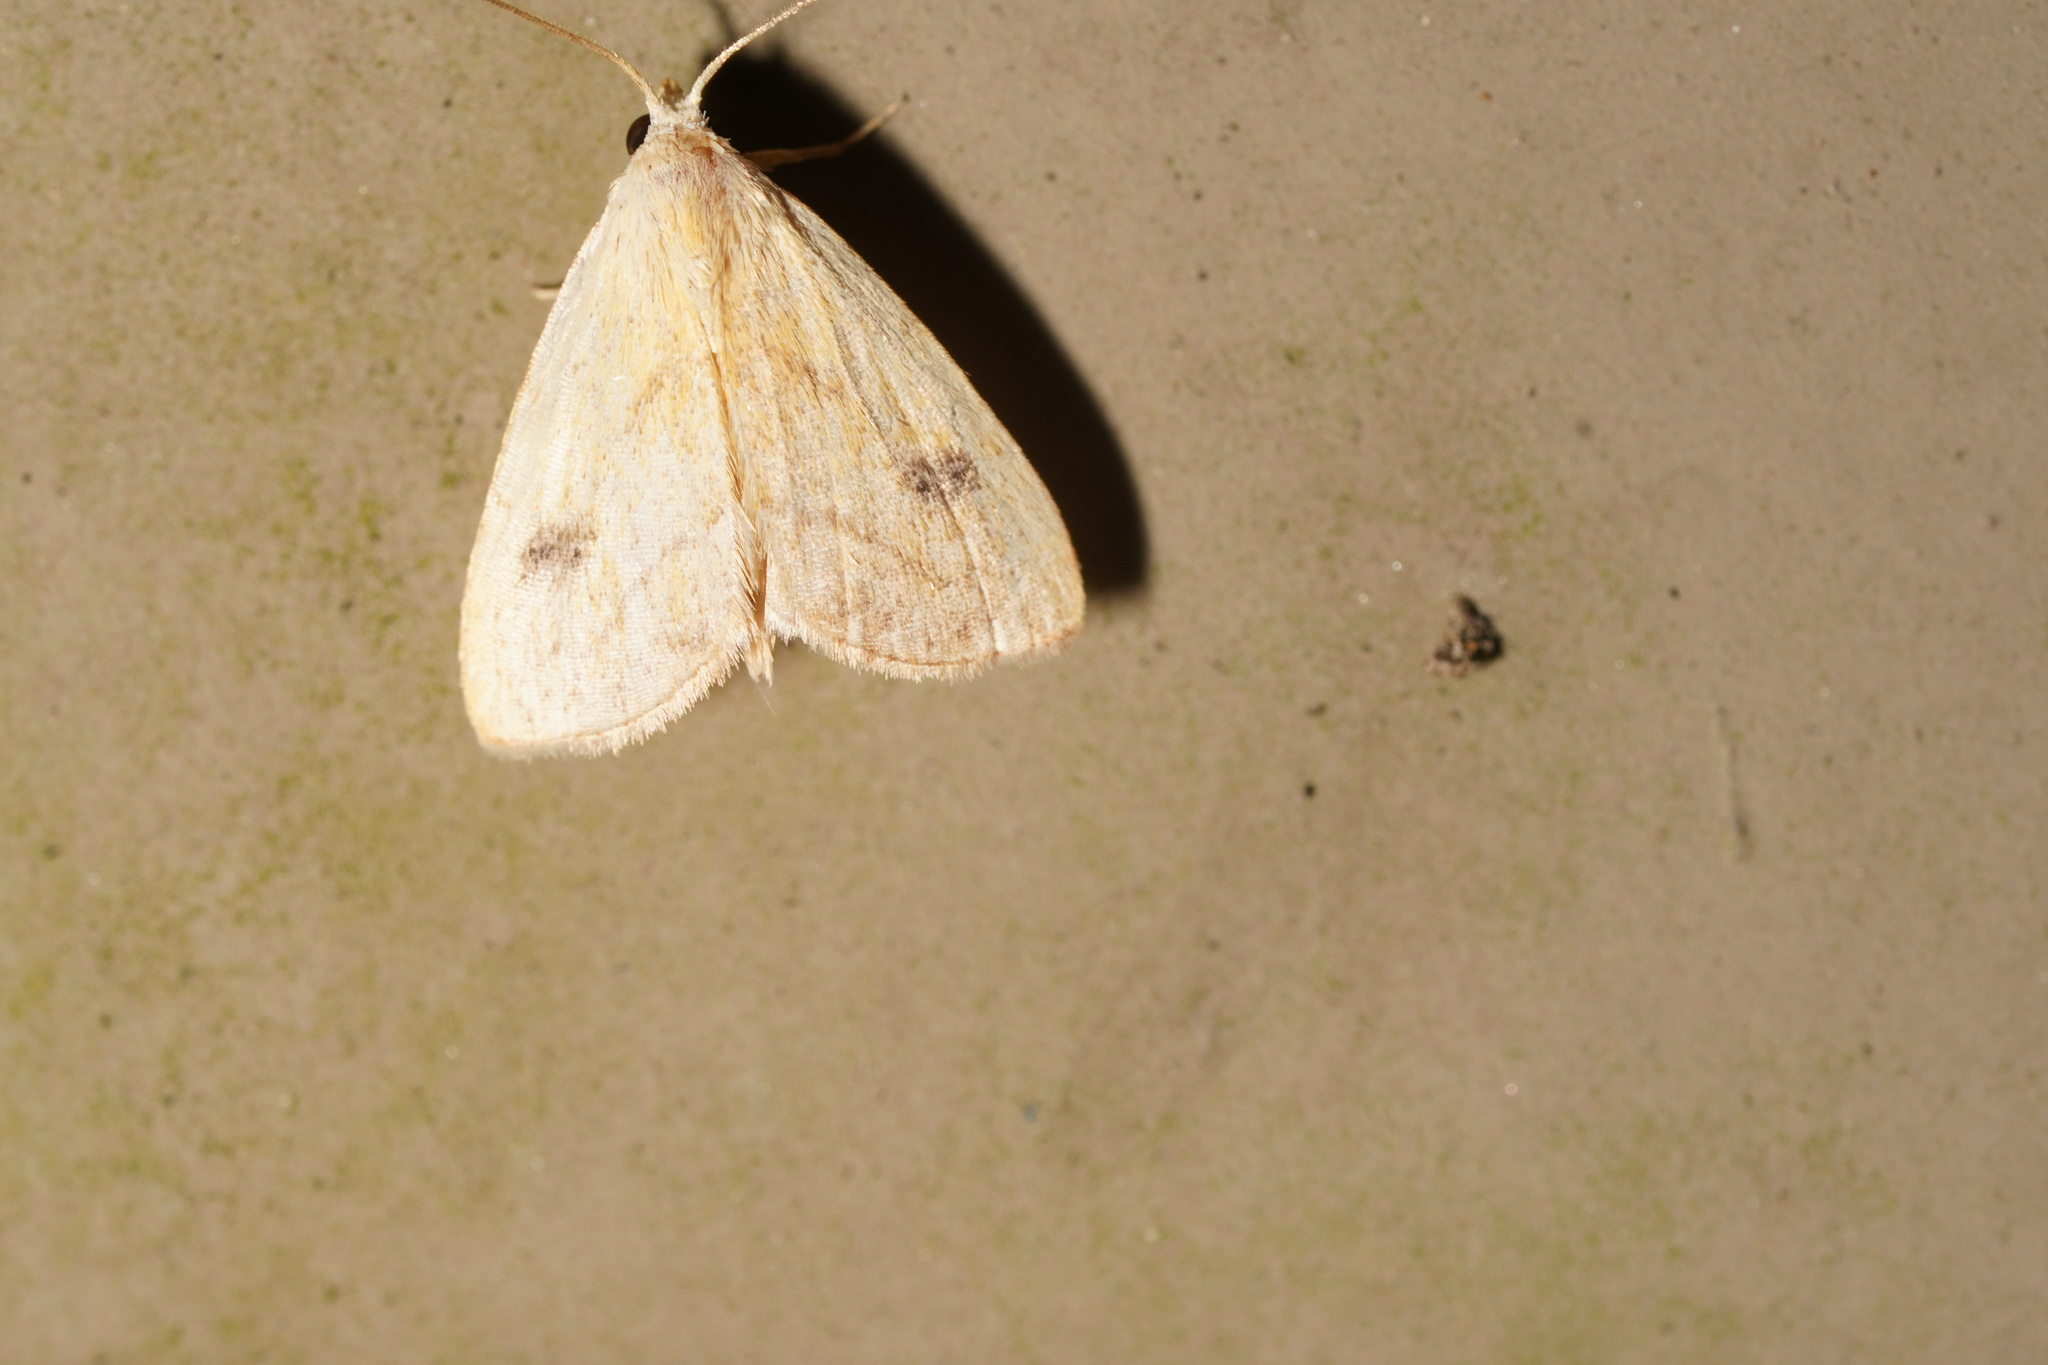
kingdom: Animalia
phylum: Arthropoda
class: Insecta
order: Lepidoptera
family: Erebidae
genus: Rivula
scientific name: Rivula propinqualis
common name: Spotted grass moth
